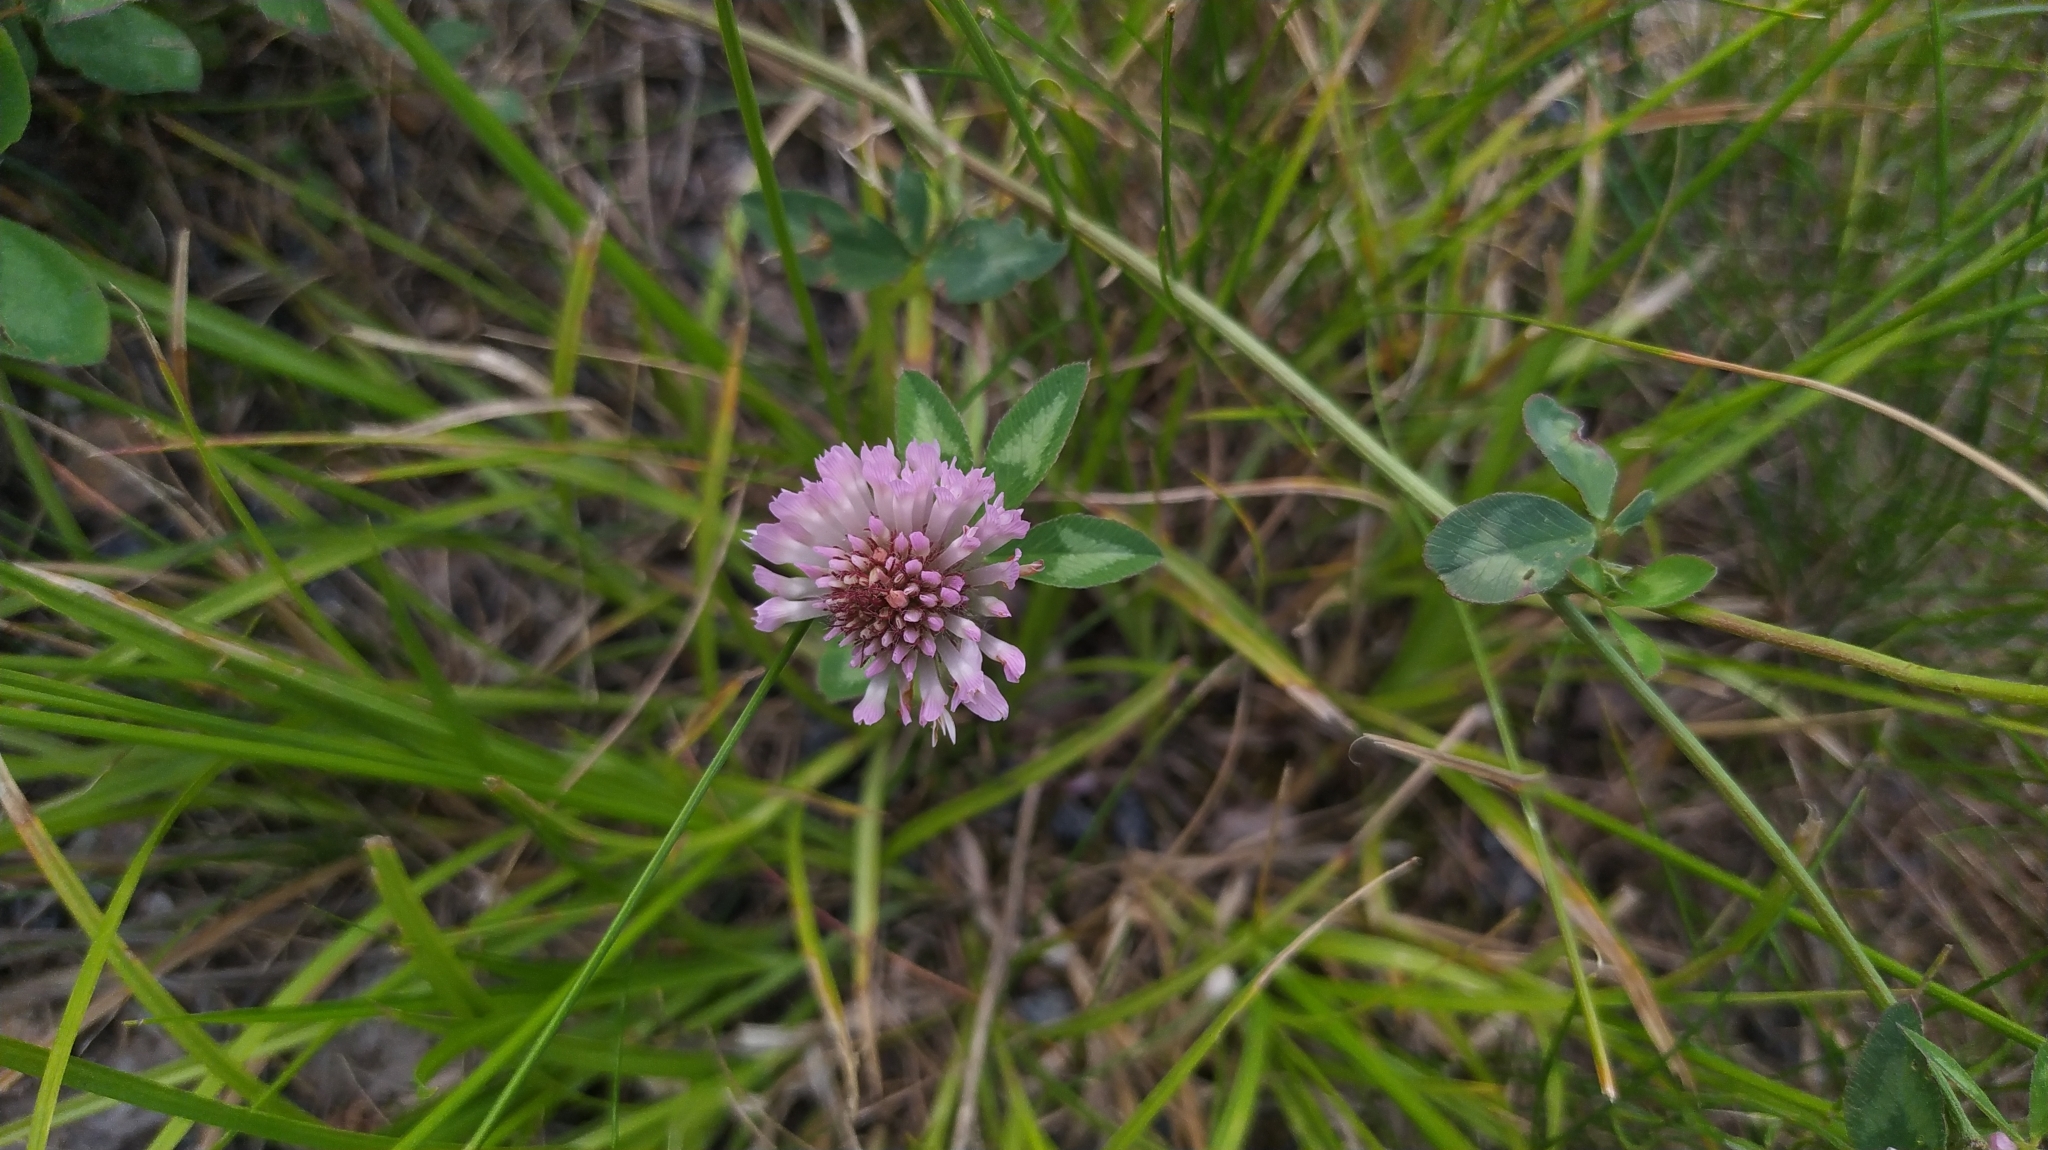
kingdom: Plantae
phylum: Tracheophyta
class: Magnoliopsida
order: Fabales
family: Fabaceae
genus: Trifolium
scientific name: Trifolium pratense
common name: Red clover
